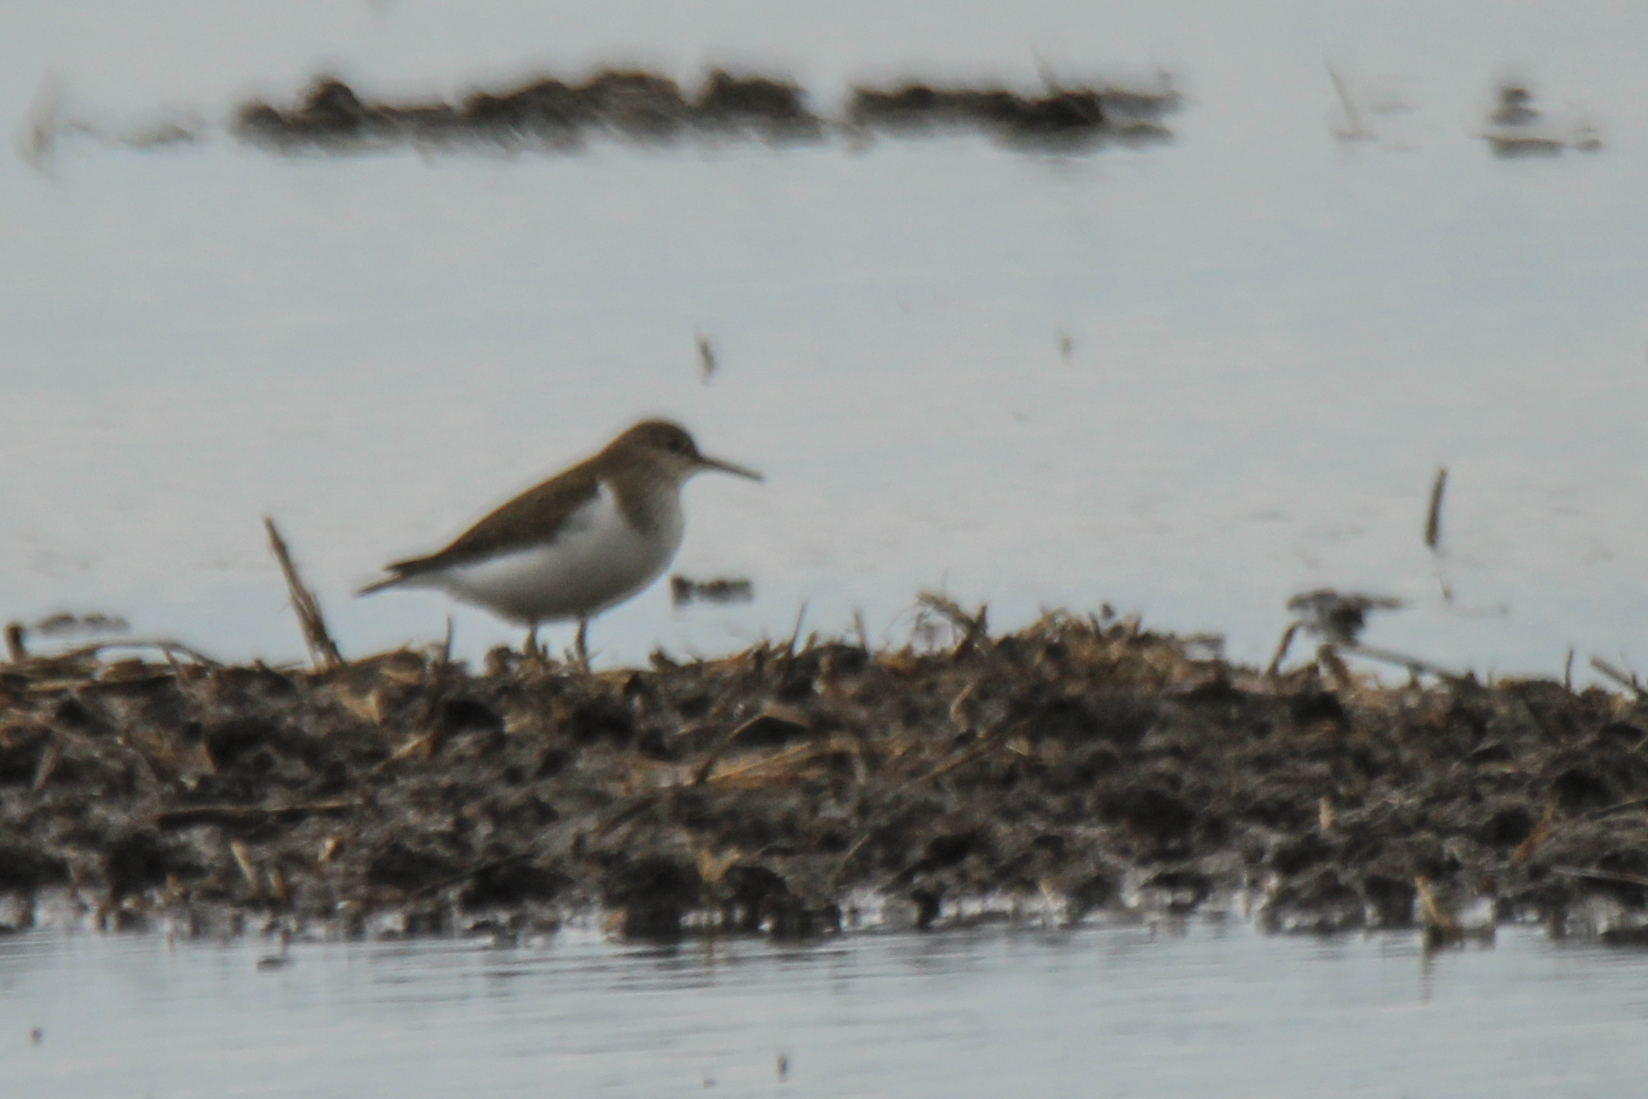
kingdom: Animalia
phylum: Chordata
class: Aves
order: Charadriiformes
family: Scolopacidae
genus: Actitis
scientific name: Actitis hypoleucos
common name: Common sandpiper
